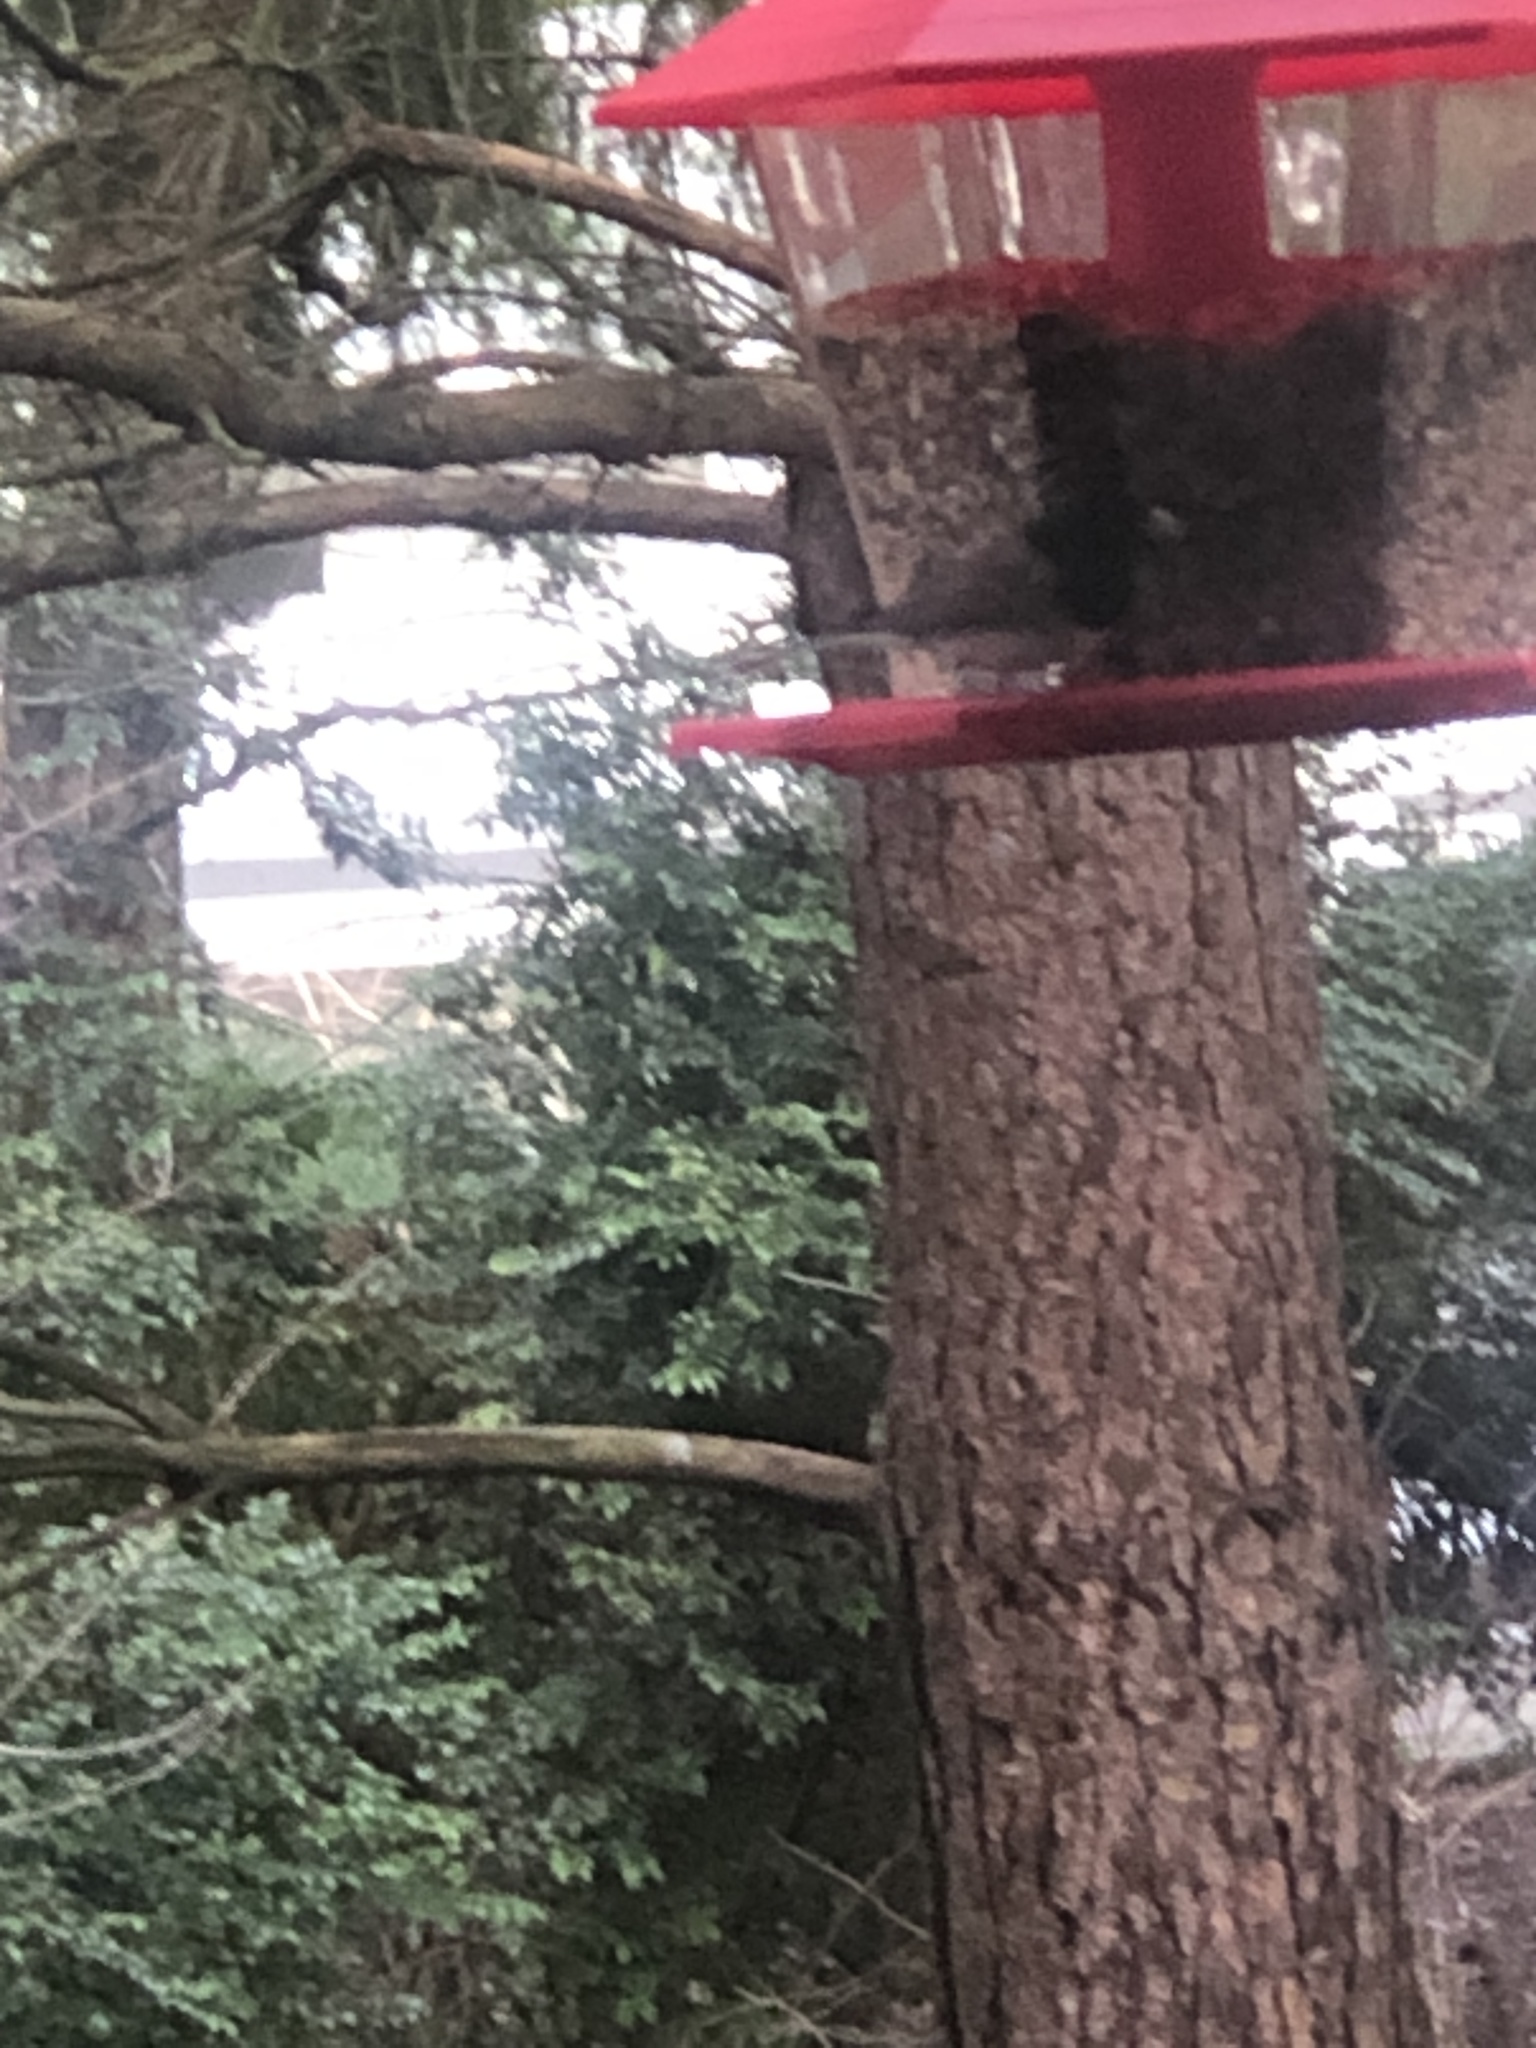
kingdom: Animalia
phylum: Chordata
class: Aves
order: Passeriformes
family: Passerellidae
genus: Junco
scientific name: Junco hyemalis
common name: Dark-eyed junco
